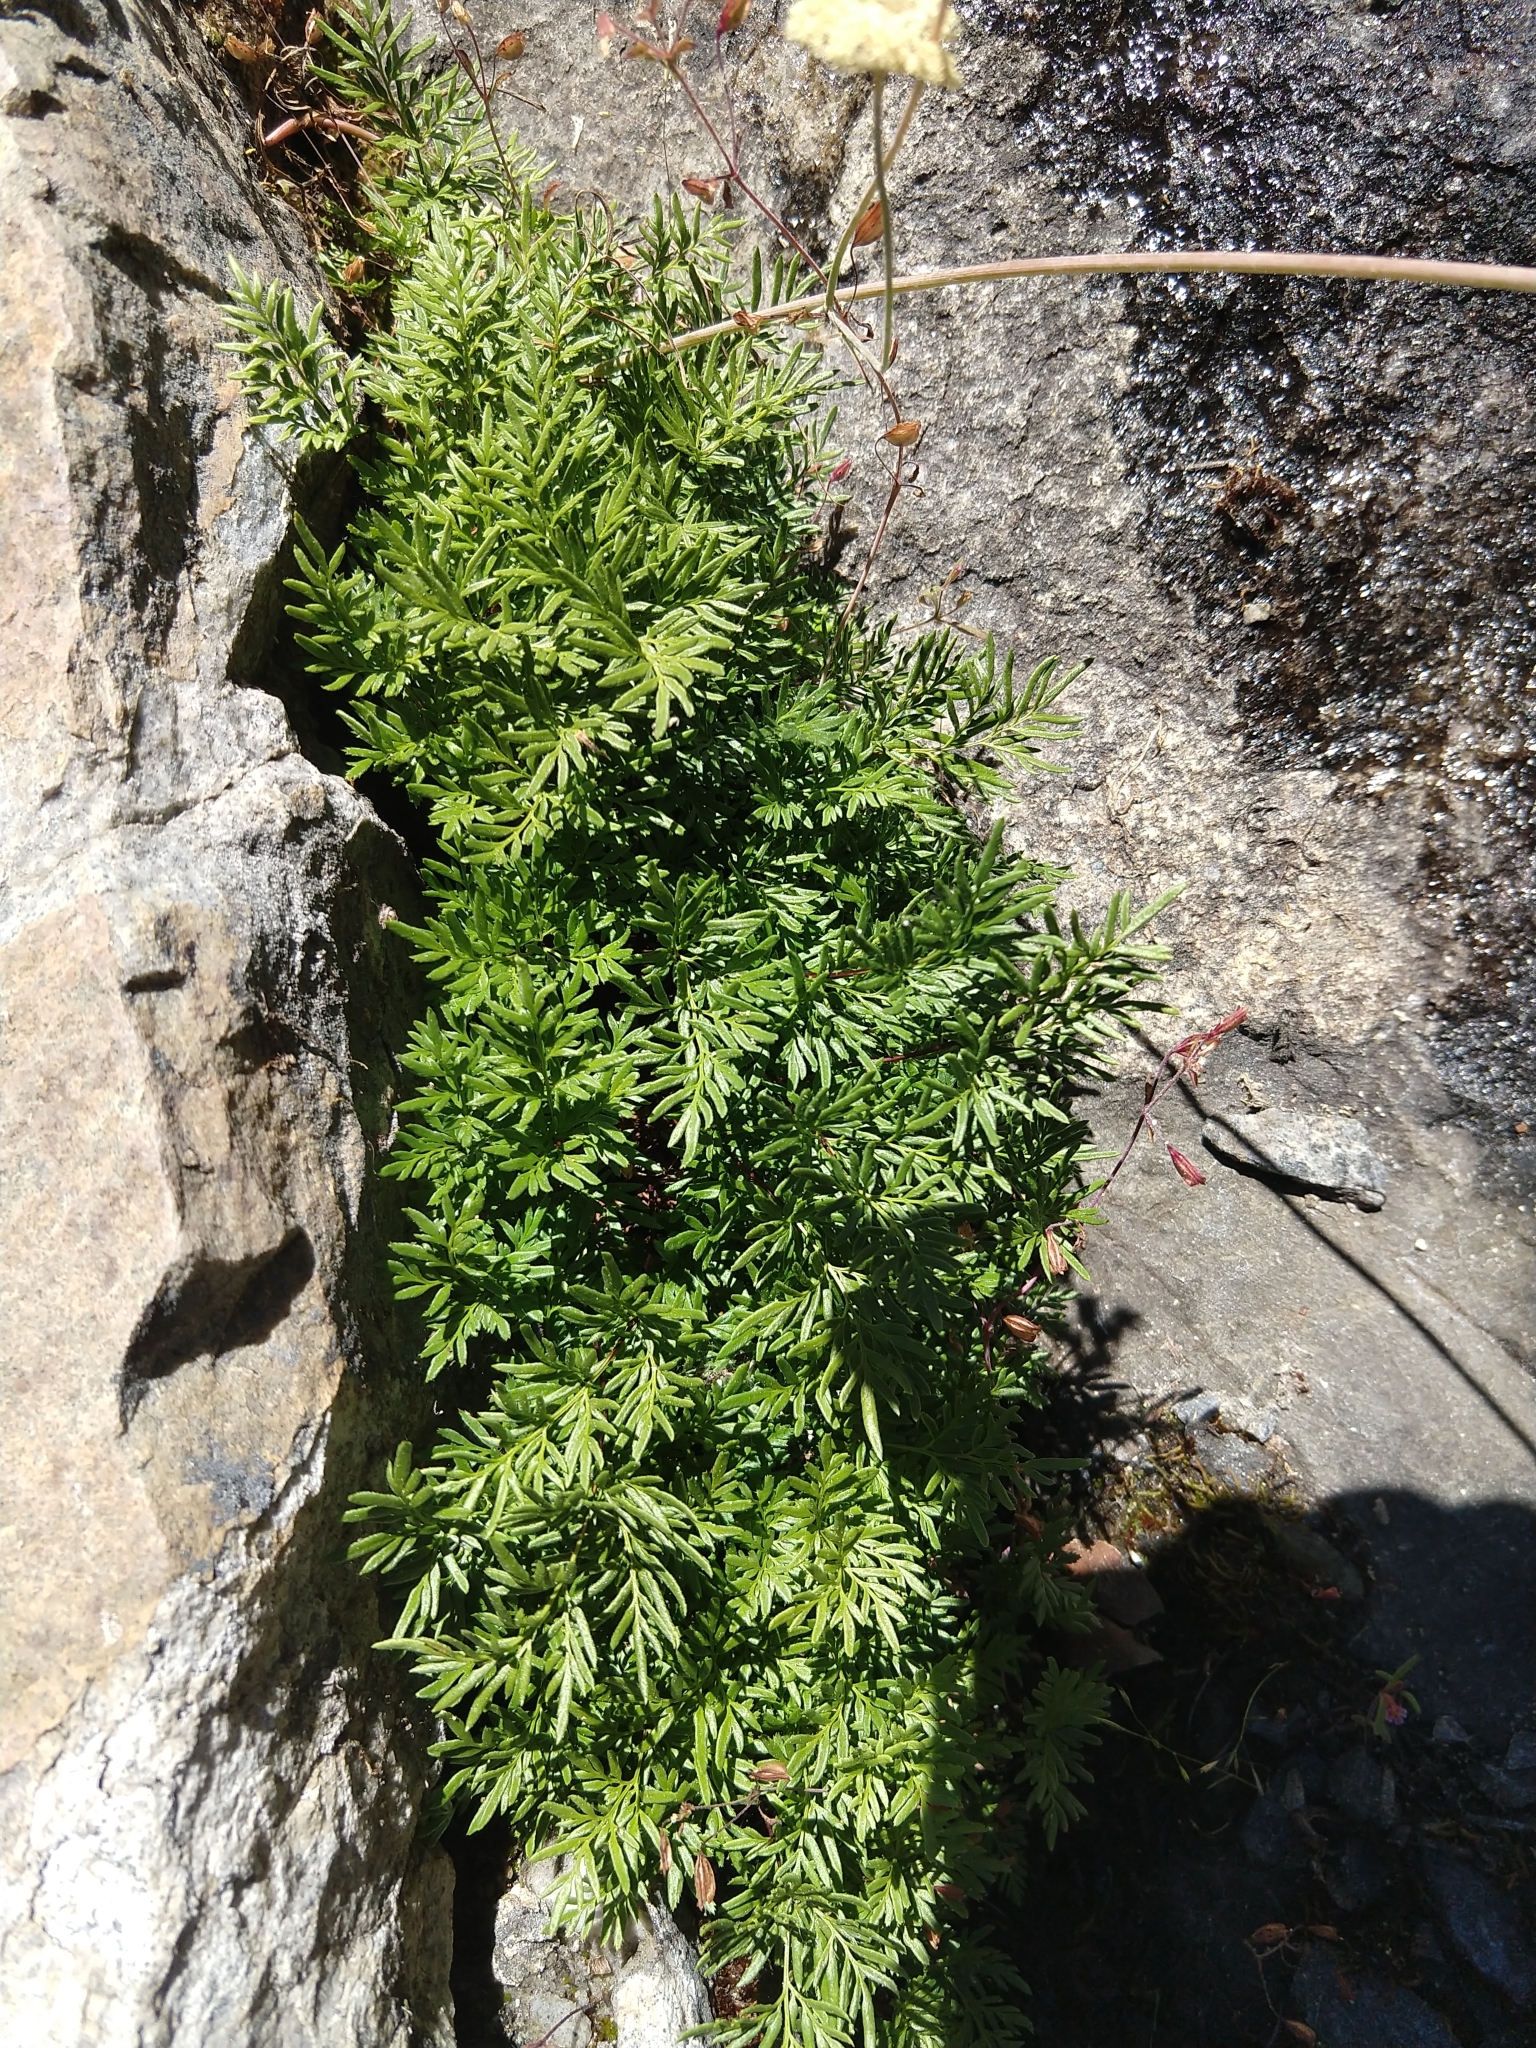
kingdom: Plantae
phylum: Tracheophyta
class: Polypodiopsida
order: Polypodiales
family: Pteridaceae
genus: Aspidotis
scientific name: Aspidotis densa
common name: Indian's dream
